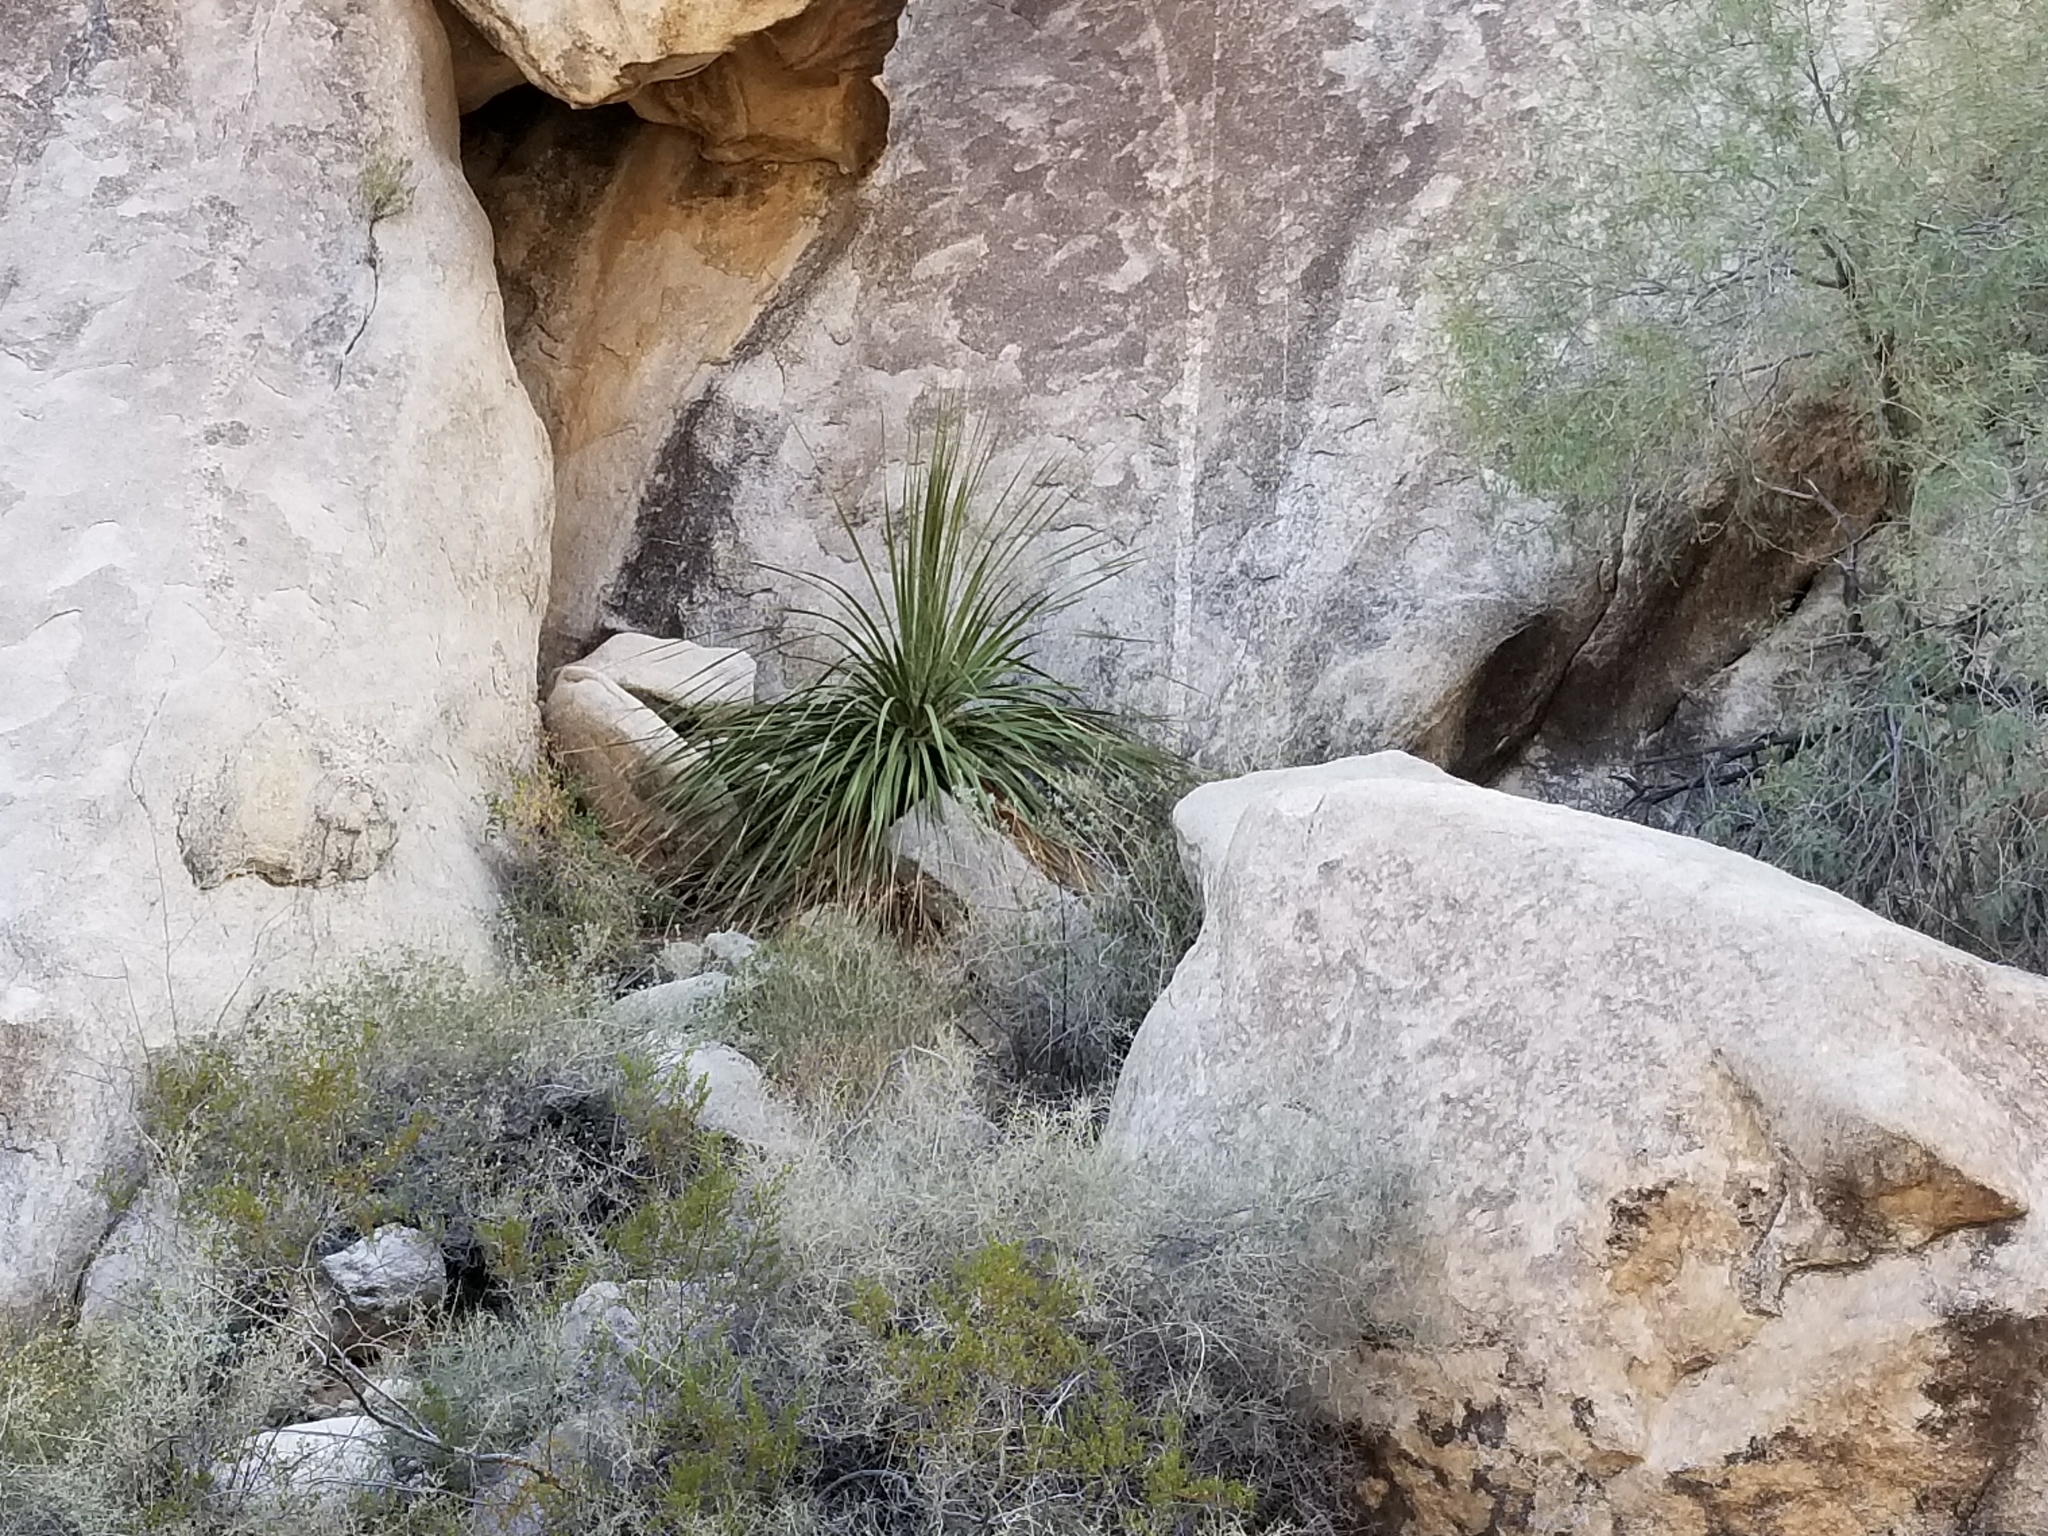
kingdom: Plantae
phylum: Tracheophyta
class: Liliopsida
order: Asparagales
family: Asparagaceae
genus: Nolina
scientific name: Nolina bigelovii
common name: Bigelow bear-grass
